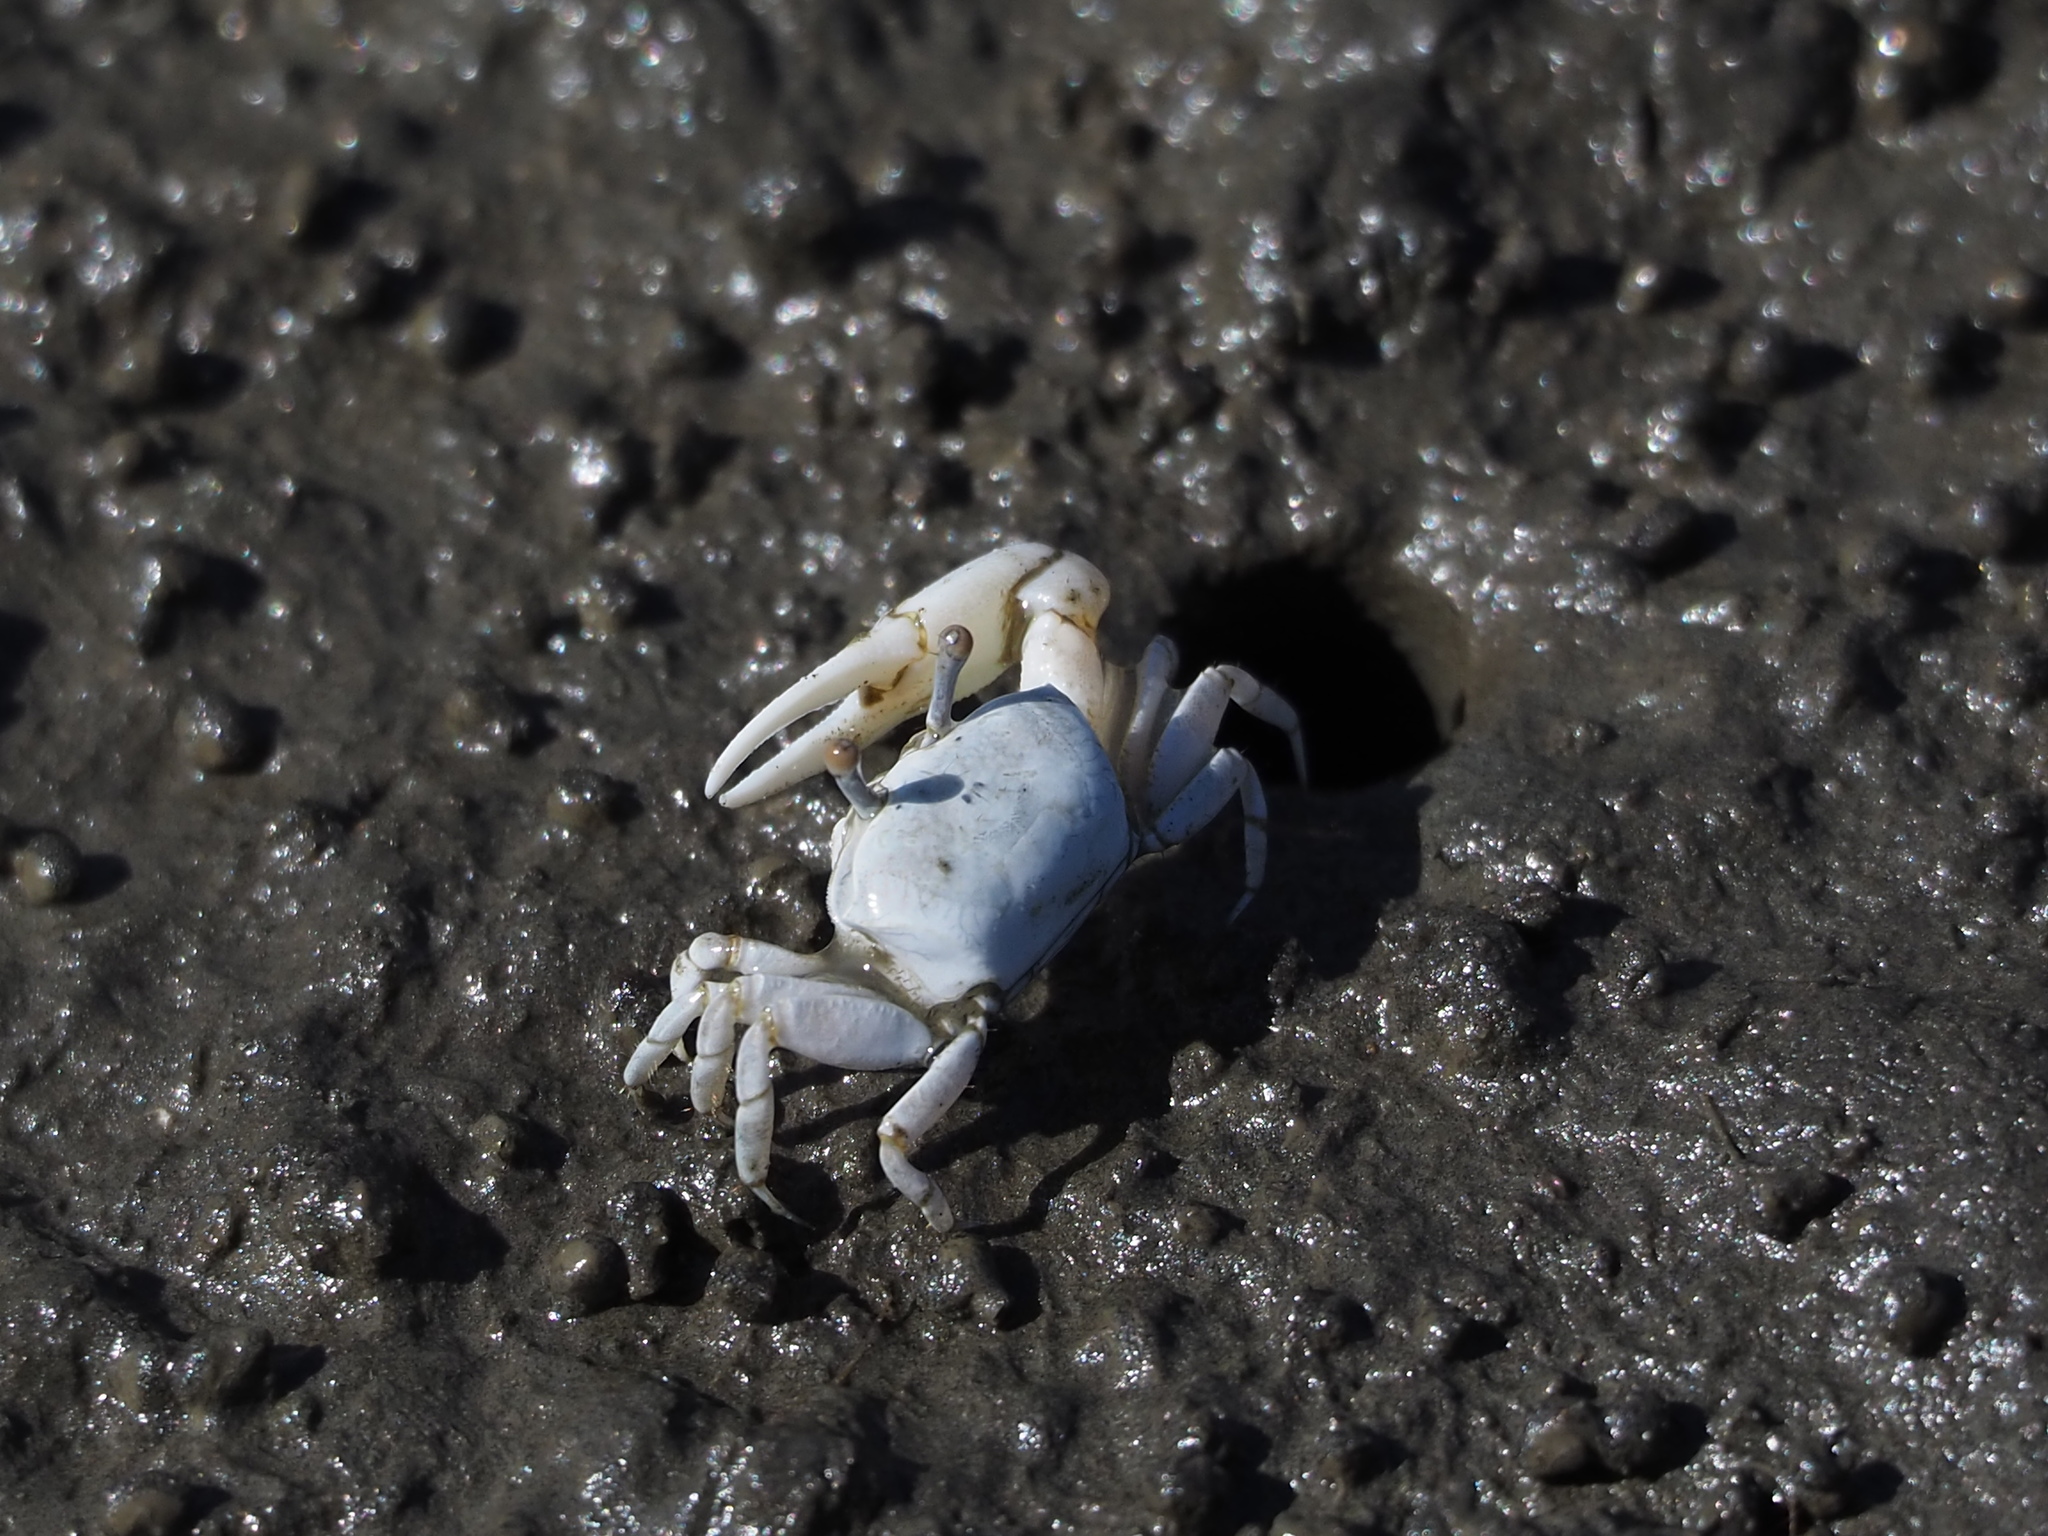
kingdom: Animalia
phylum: Arthropoda
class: Malacostraca
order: Decapoda
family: Ocypodidae
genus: Austruca
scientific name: Austruca lactea
